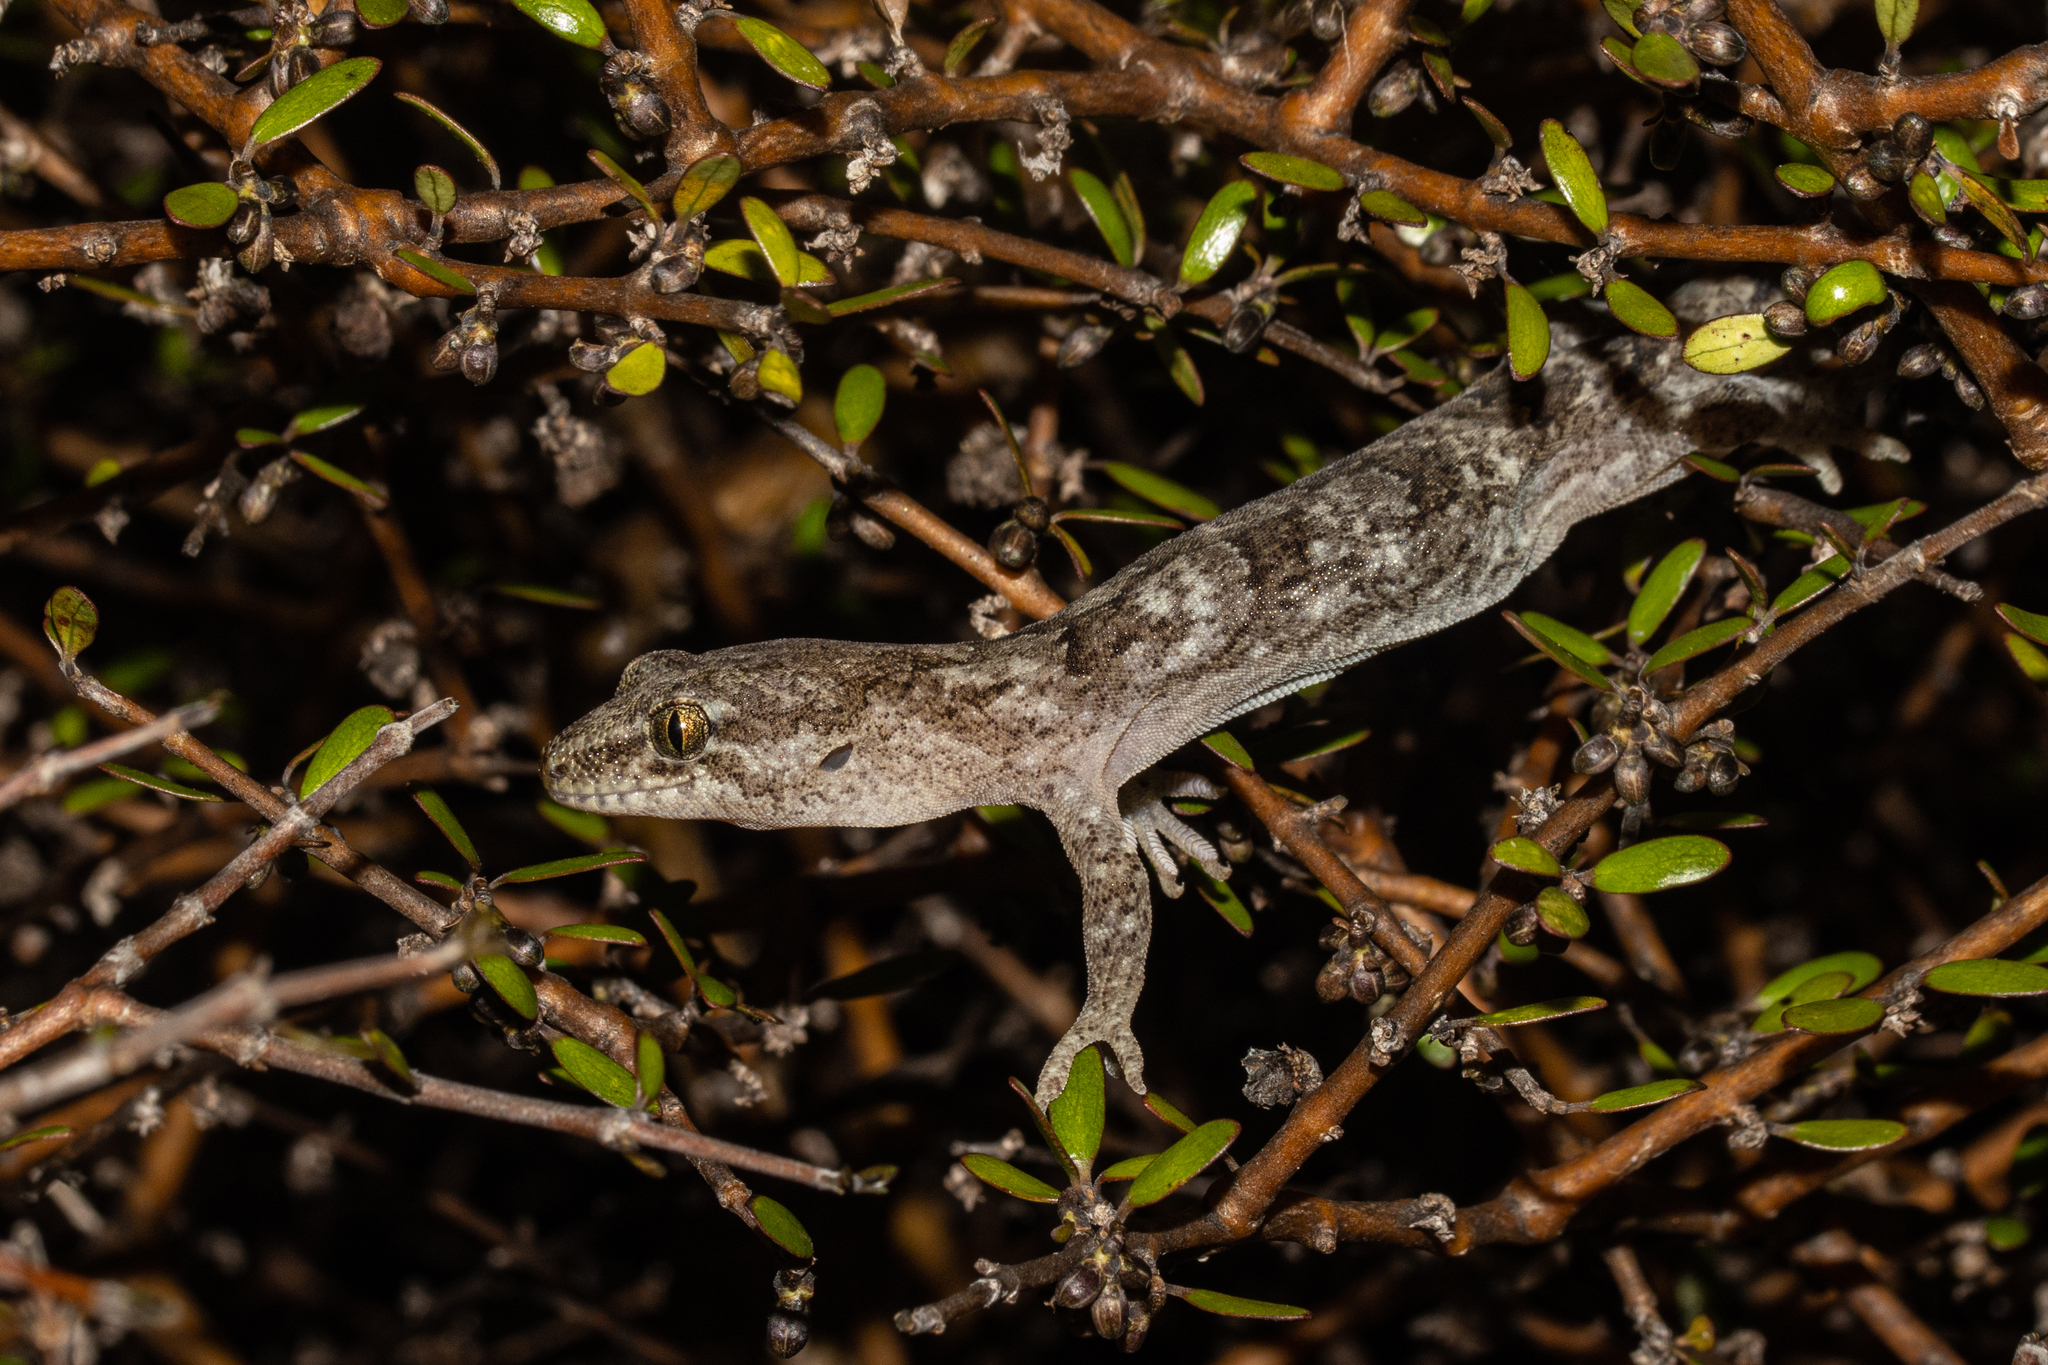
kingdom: Animalia
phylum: Chordata
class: Squamata
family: Diplodactylidae
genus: Woodworthia
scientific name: Woodworthia
